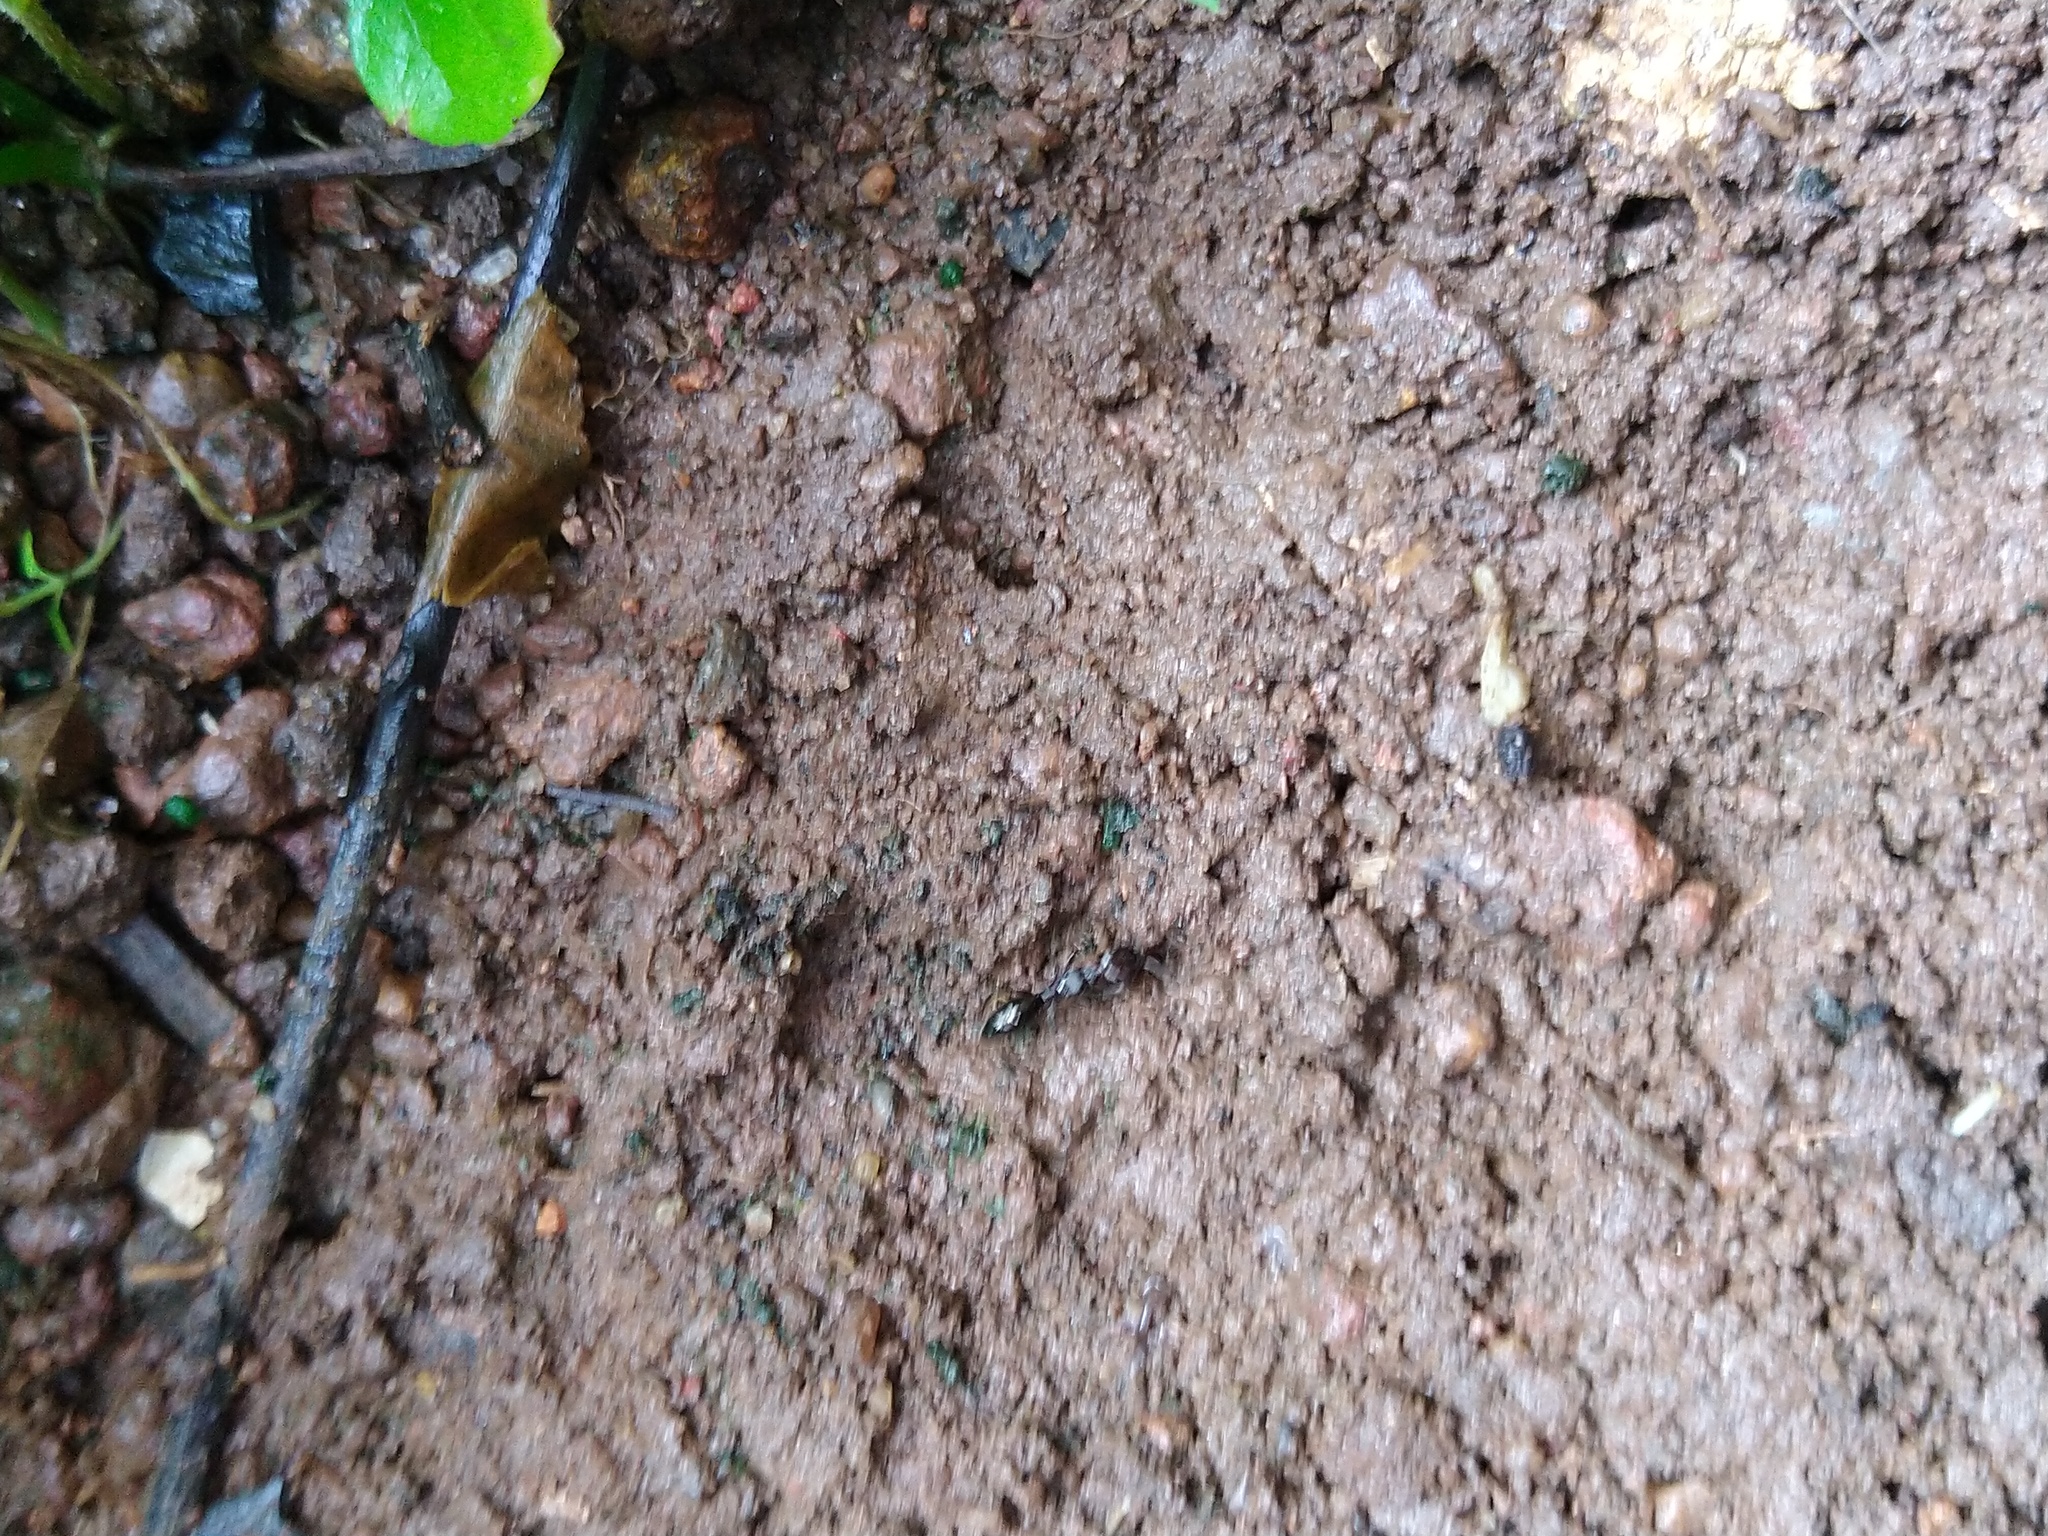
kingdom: Animalia
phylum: Arthropoda
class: Insecta
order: Hymenoptera
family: Formicidae
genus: Odontomachus
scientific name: Odontomachus simillimus
